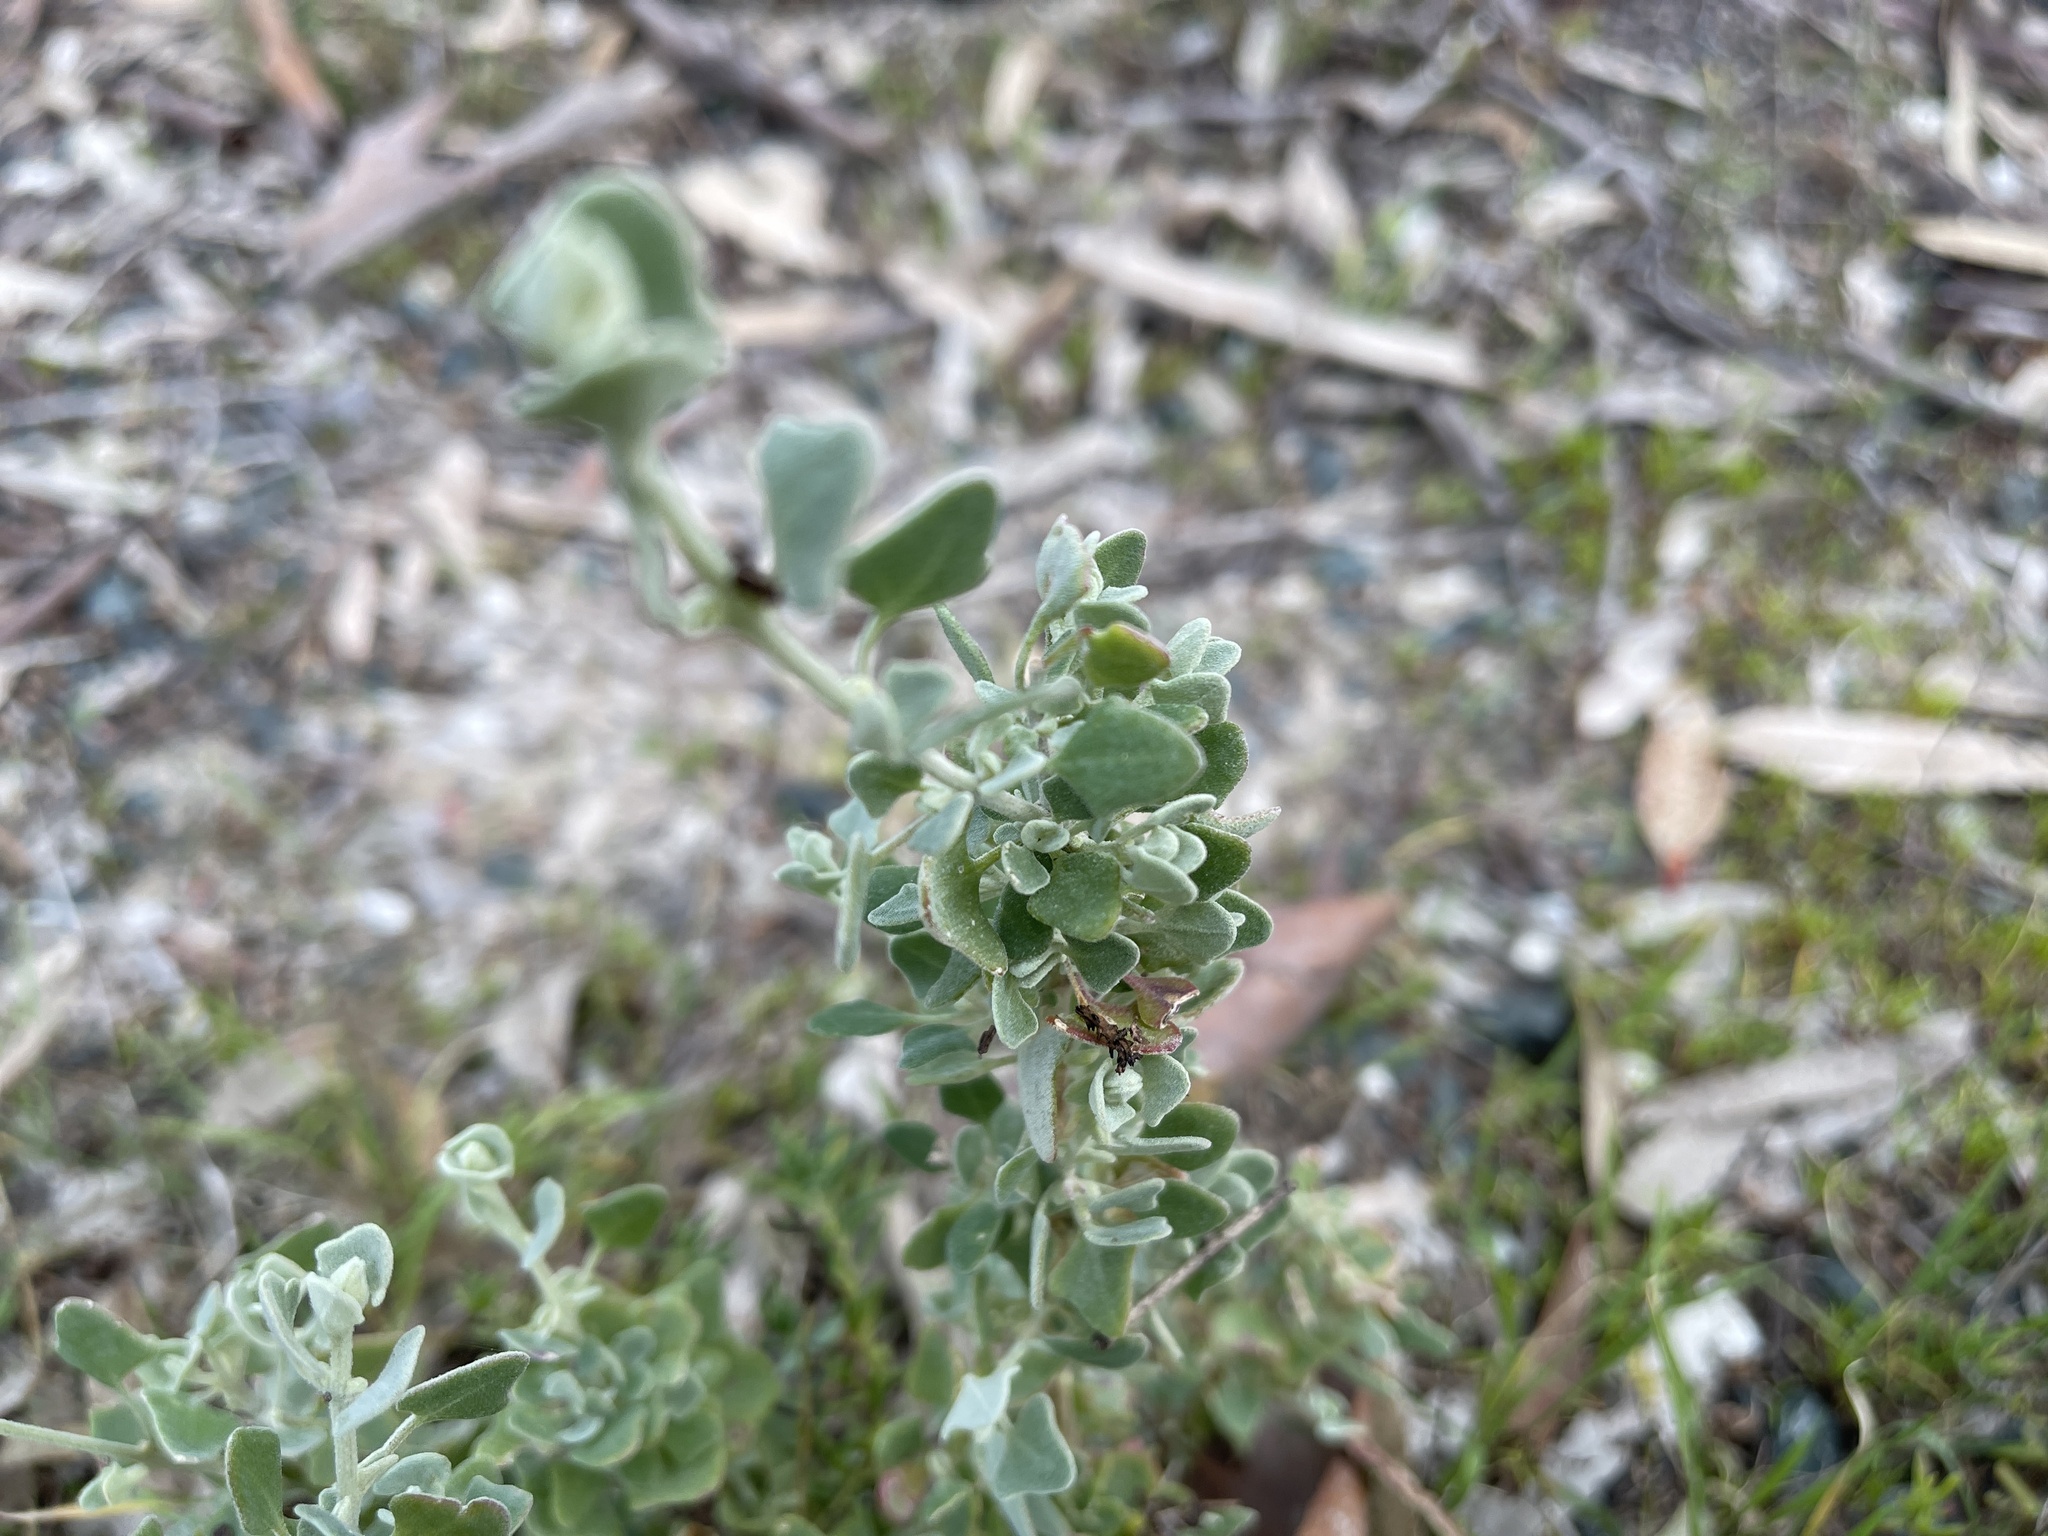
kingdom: Plantae
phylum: Tracheophyta
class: Magnoliopsida
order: Caryophyllales
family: Amaranthaceae
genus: Chenopodium
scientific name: Chenopodium spinescens
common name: Berry-saltbush
